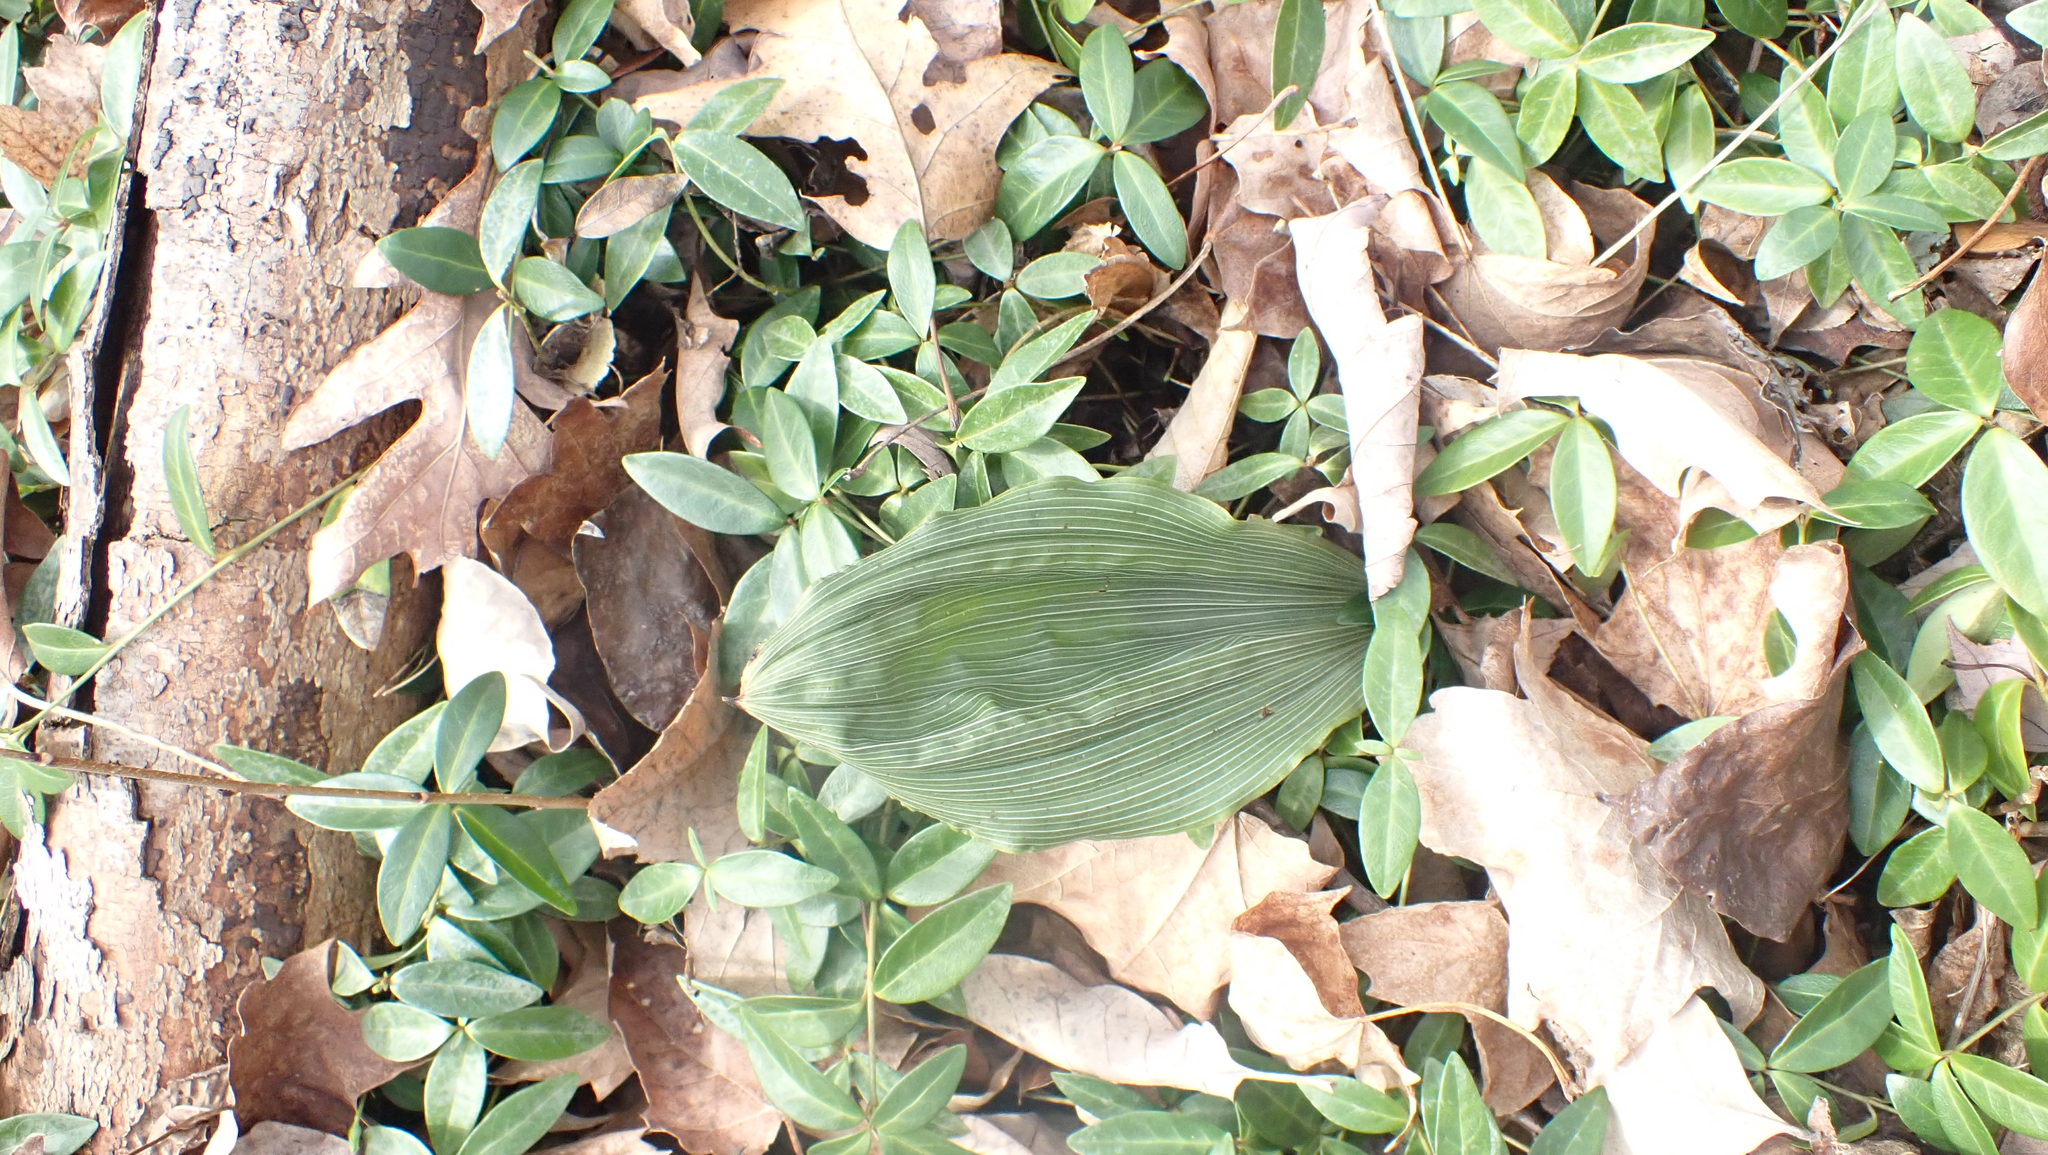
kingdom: Plantae
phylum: Tracheophyta
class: Liliopsida
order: Asparagales
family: Orchidaceae
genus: Aplectrum
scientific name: Aplectrum hyemale
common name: Adam-and-eve
